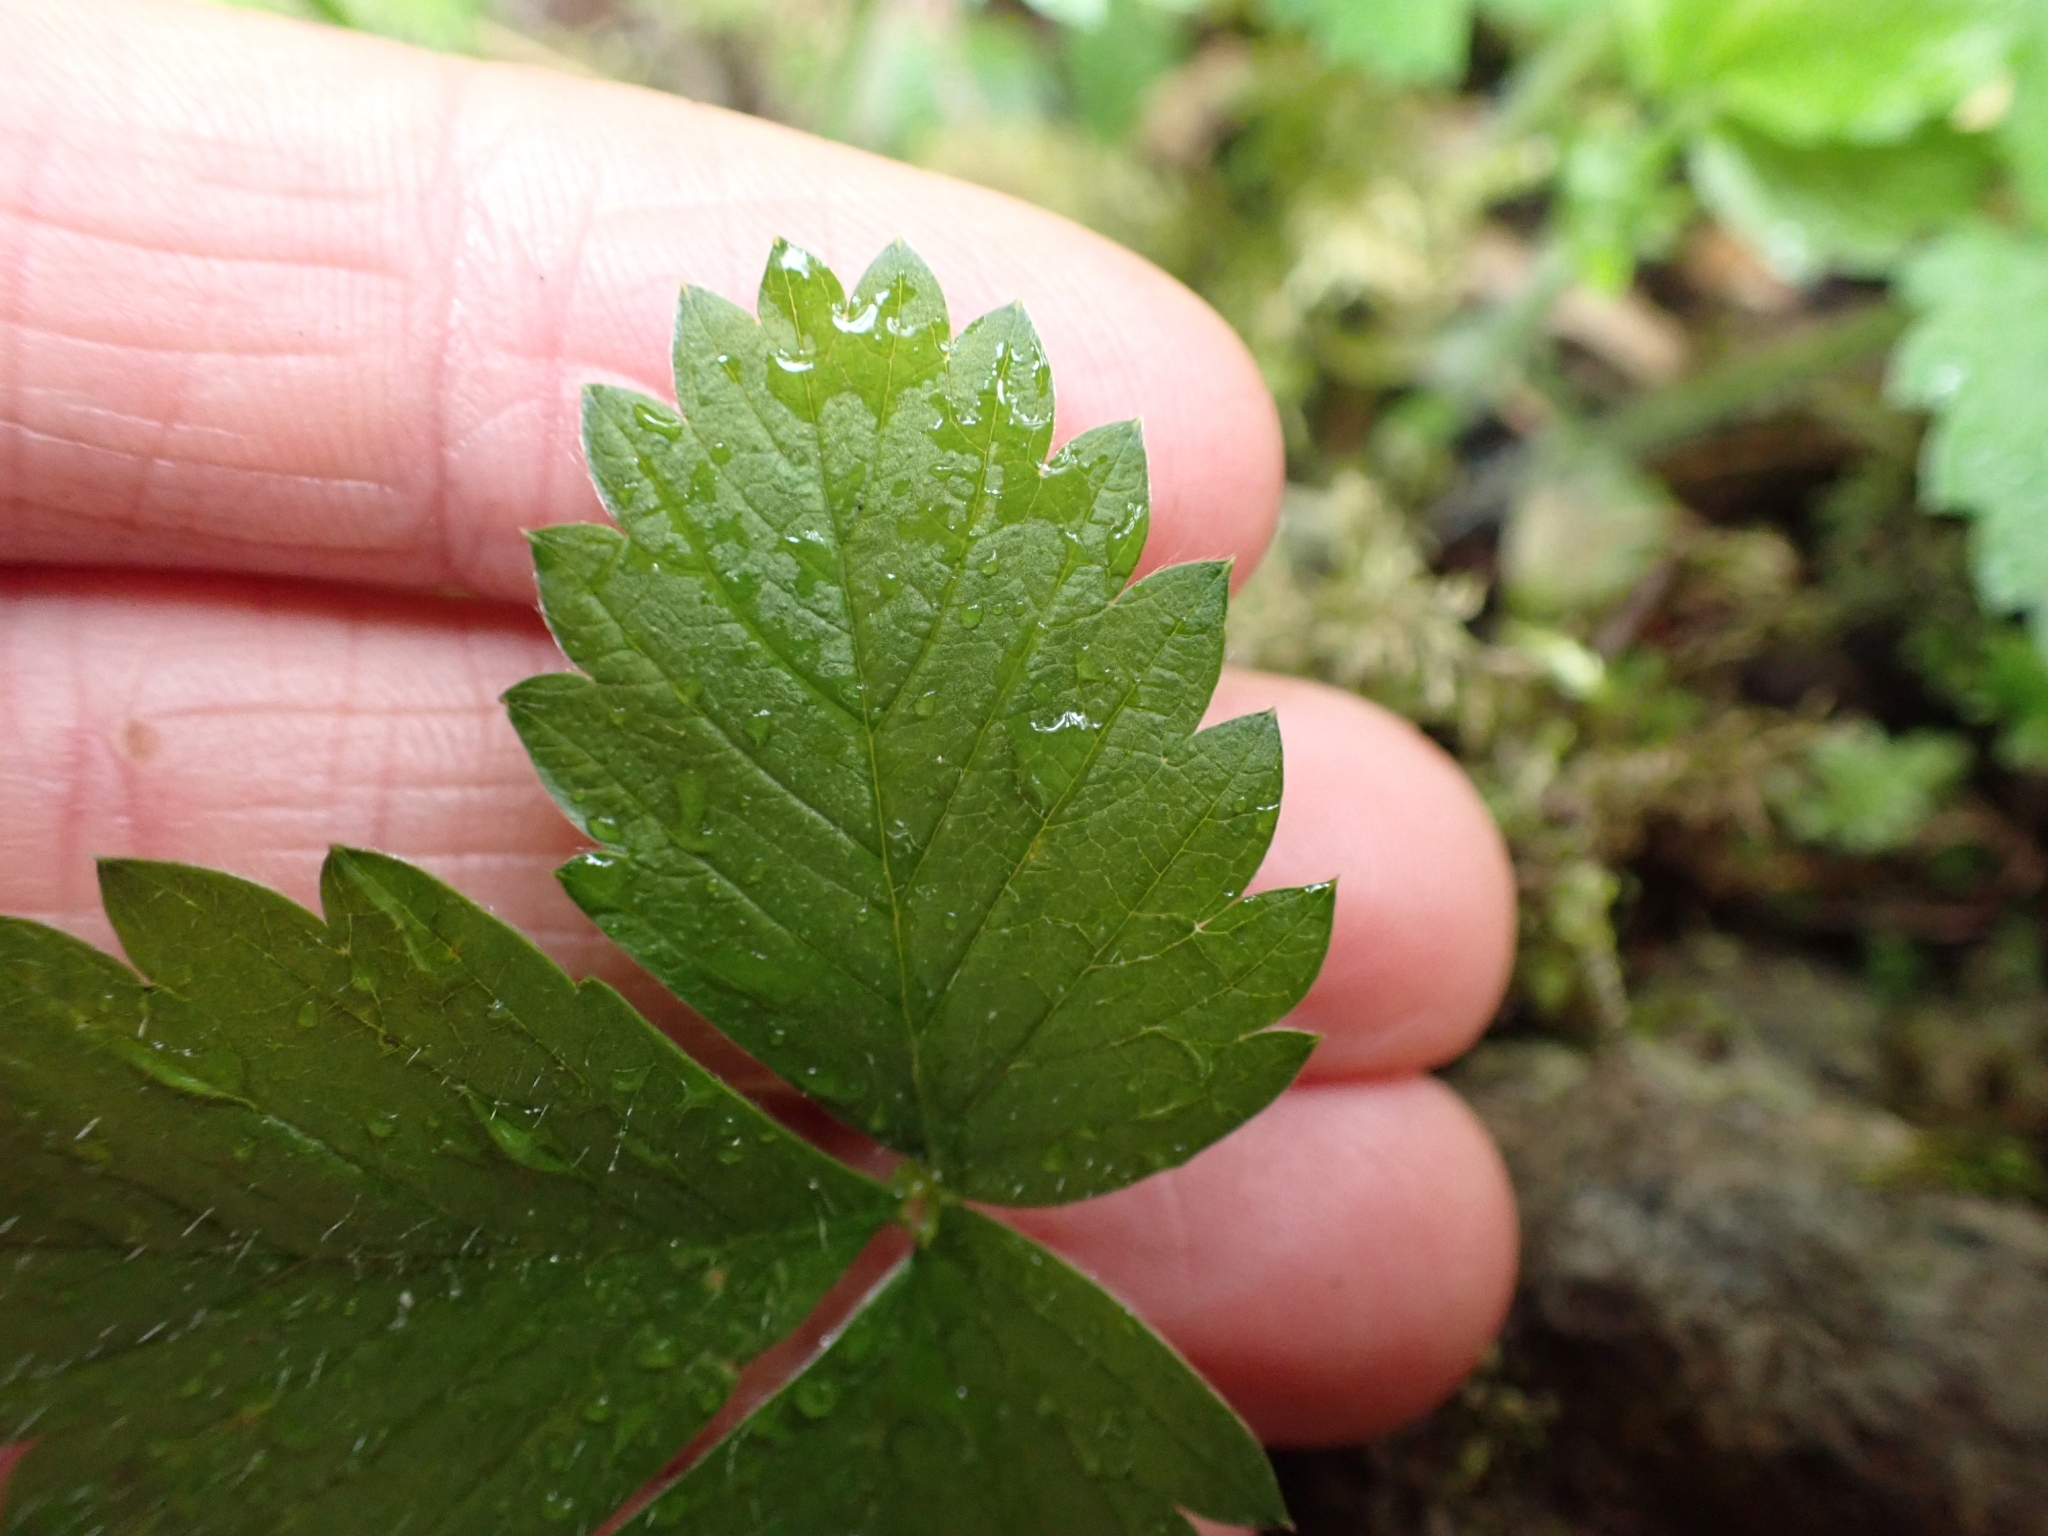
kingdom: Plantae
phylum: Tracheophyta
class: Magnoliopsida
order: Rosales
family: Rosaceae
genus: Fragaria
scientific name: Fragaria vesca
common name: Wild strawberry
